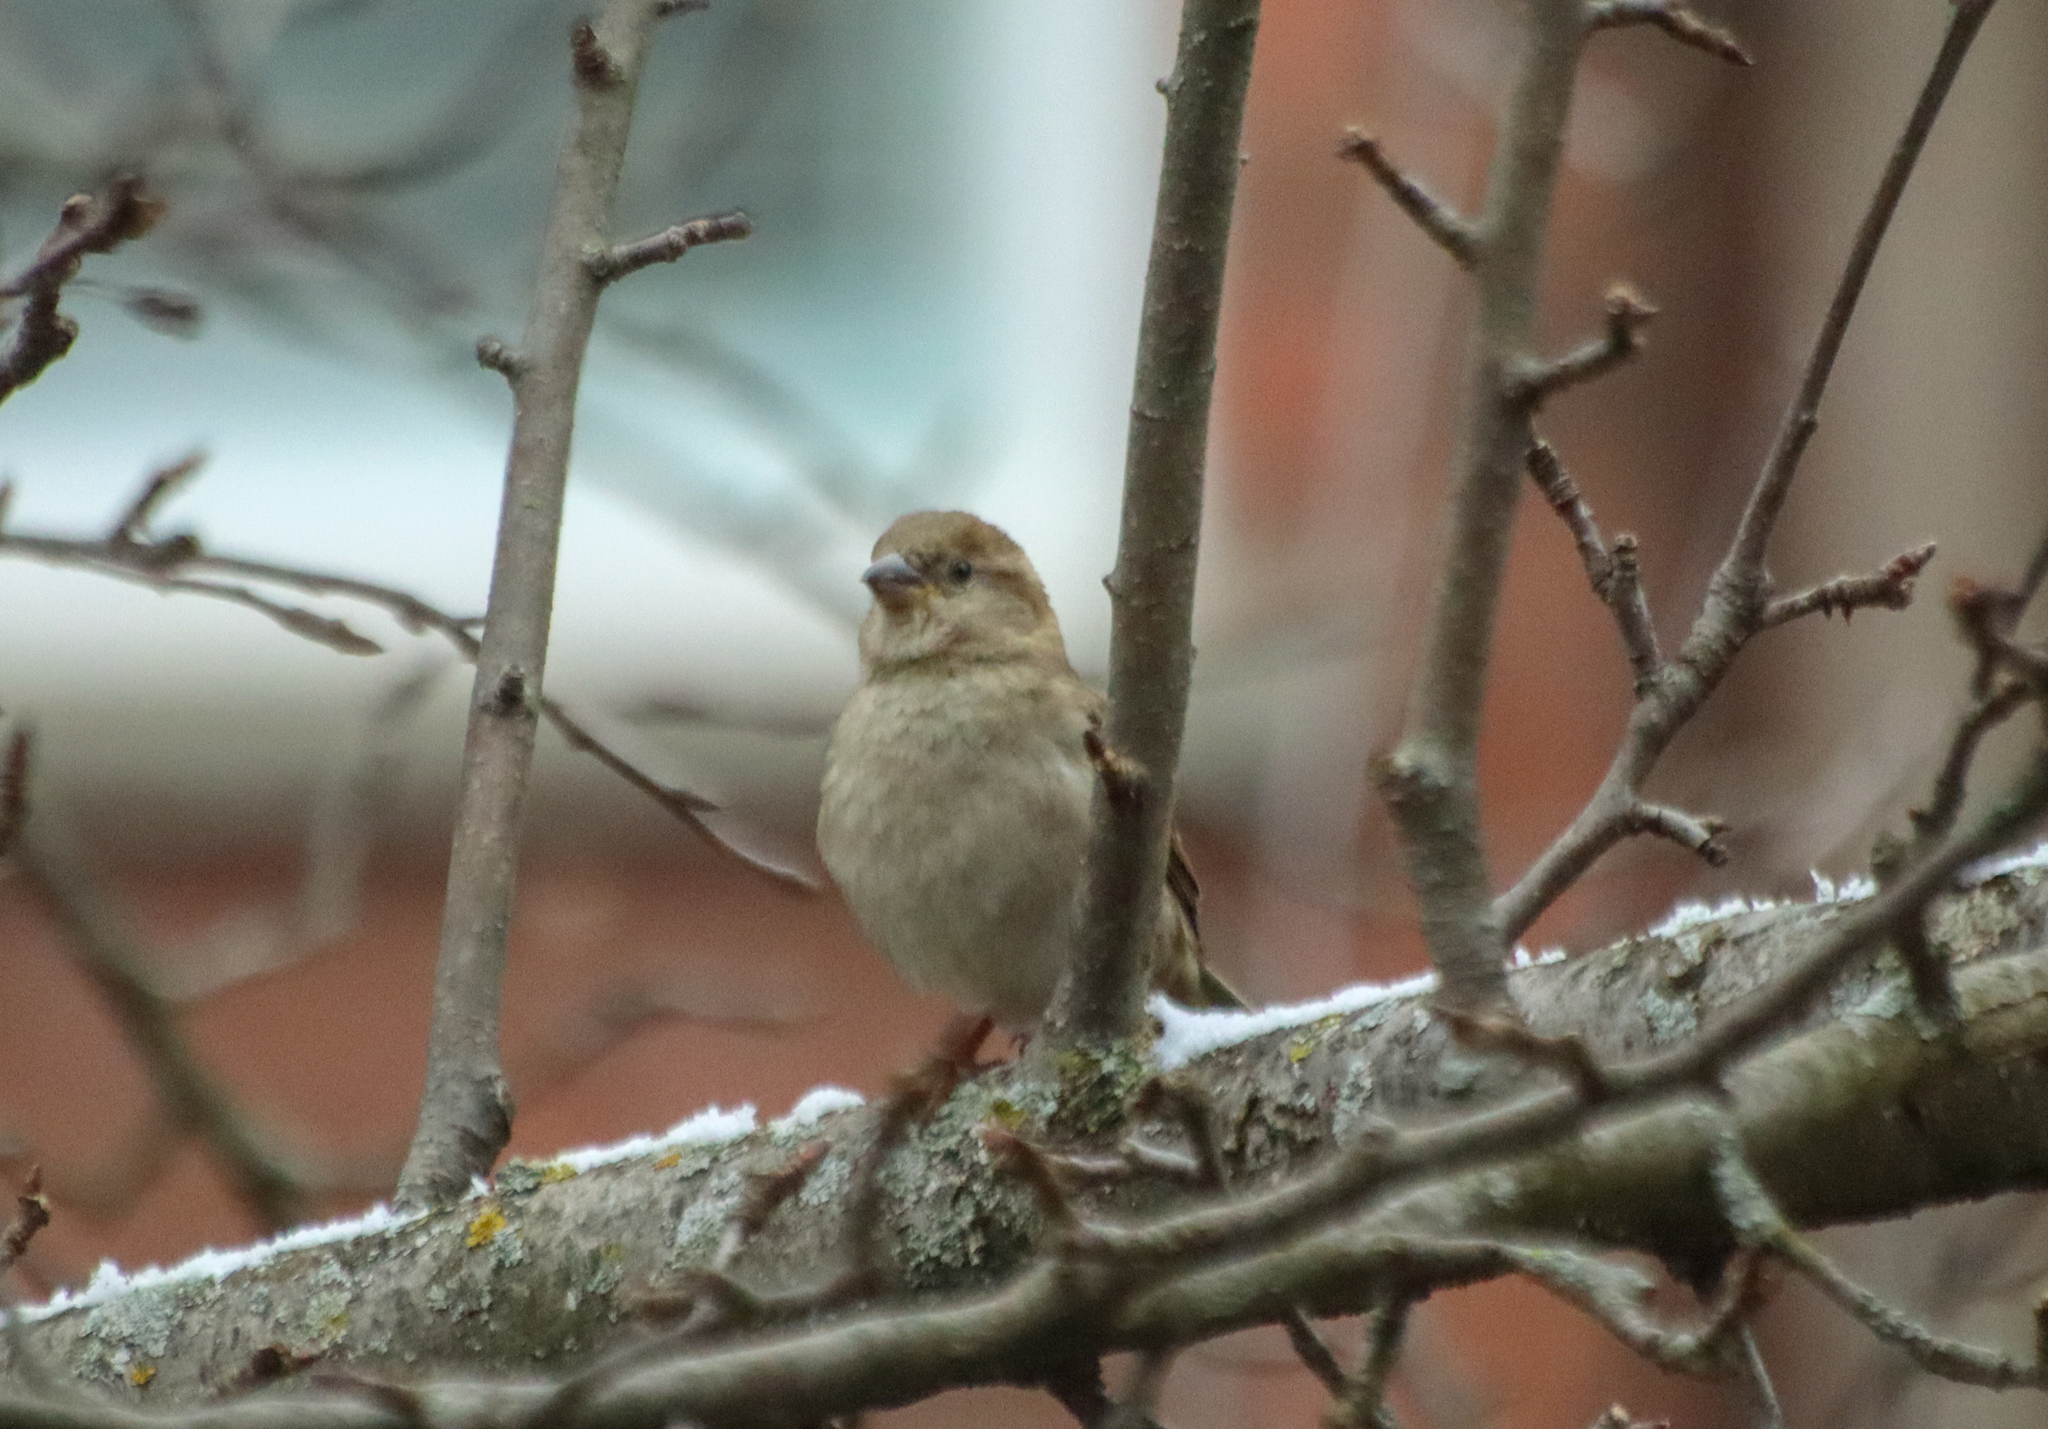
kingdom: Animalia
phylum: Chordata
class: Aves
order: Passeriformes
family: Passeridae
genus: Passer
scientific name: Passer domesticus
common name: House sparrow
